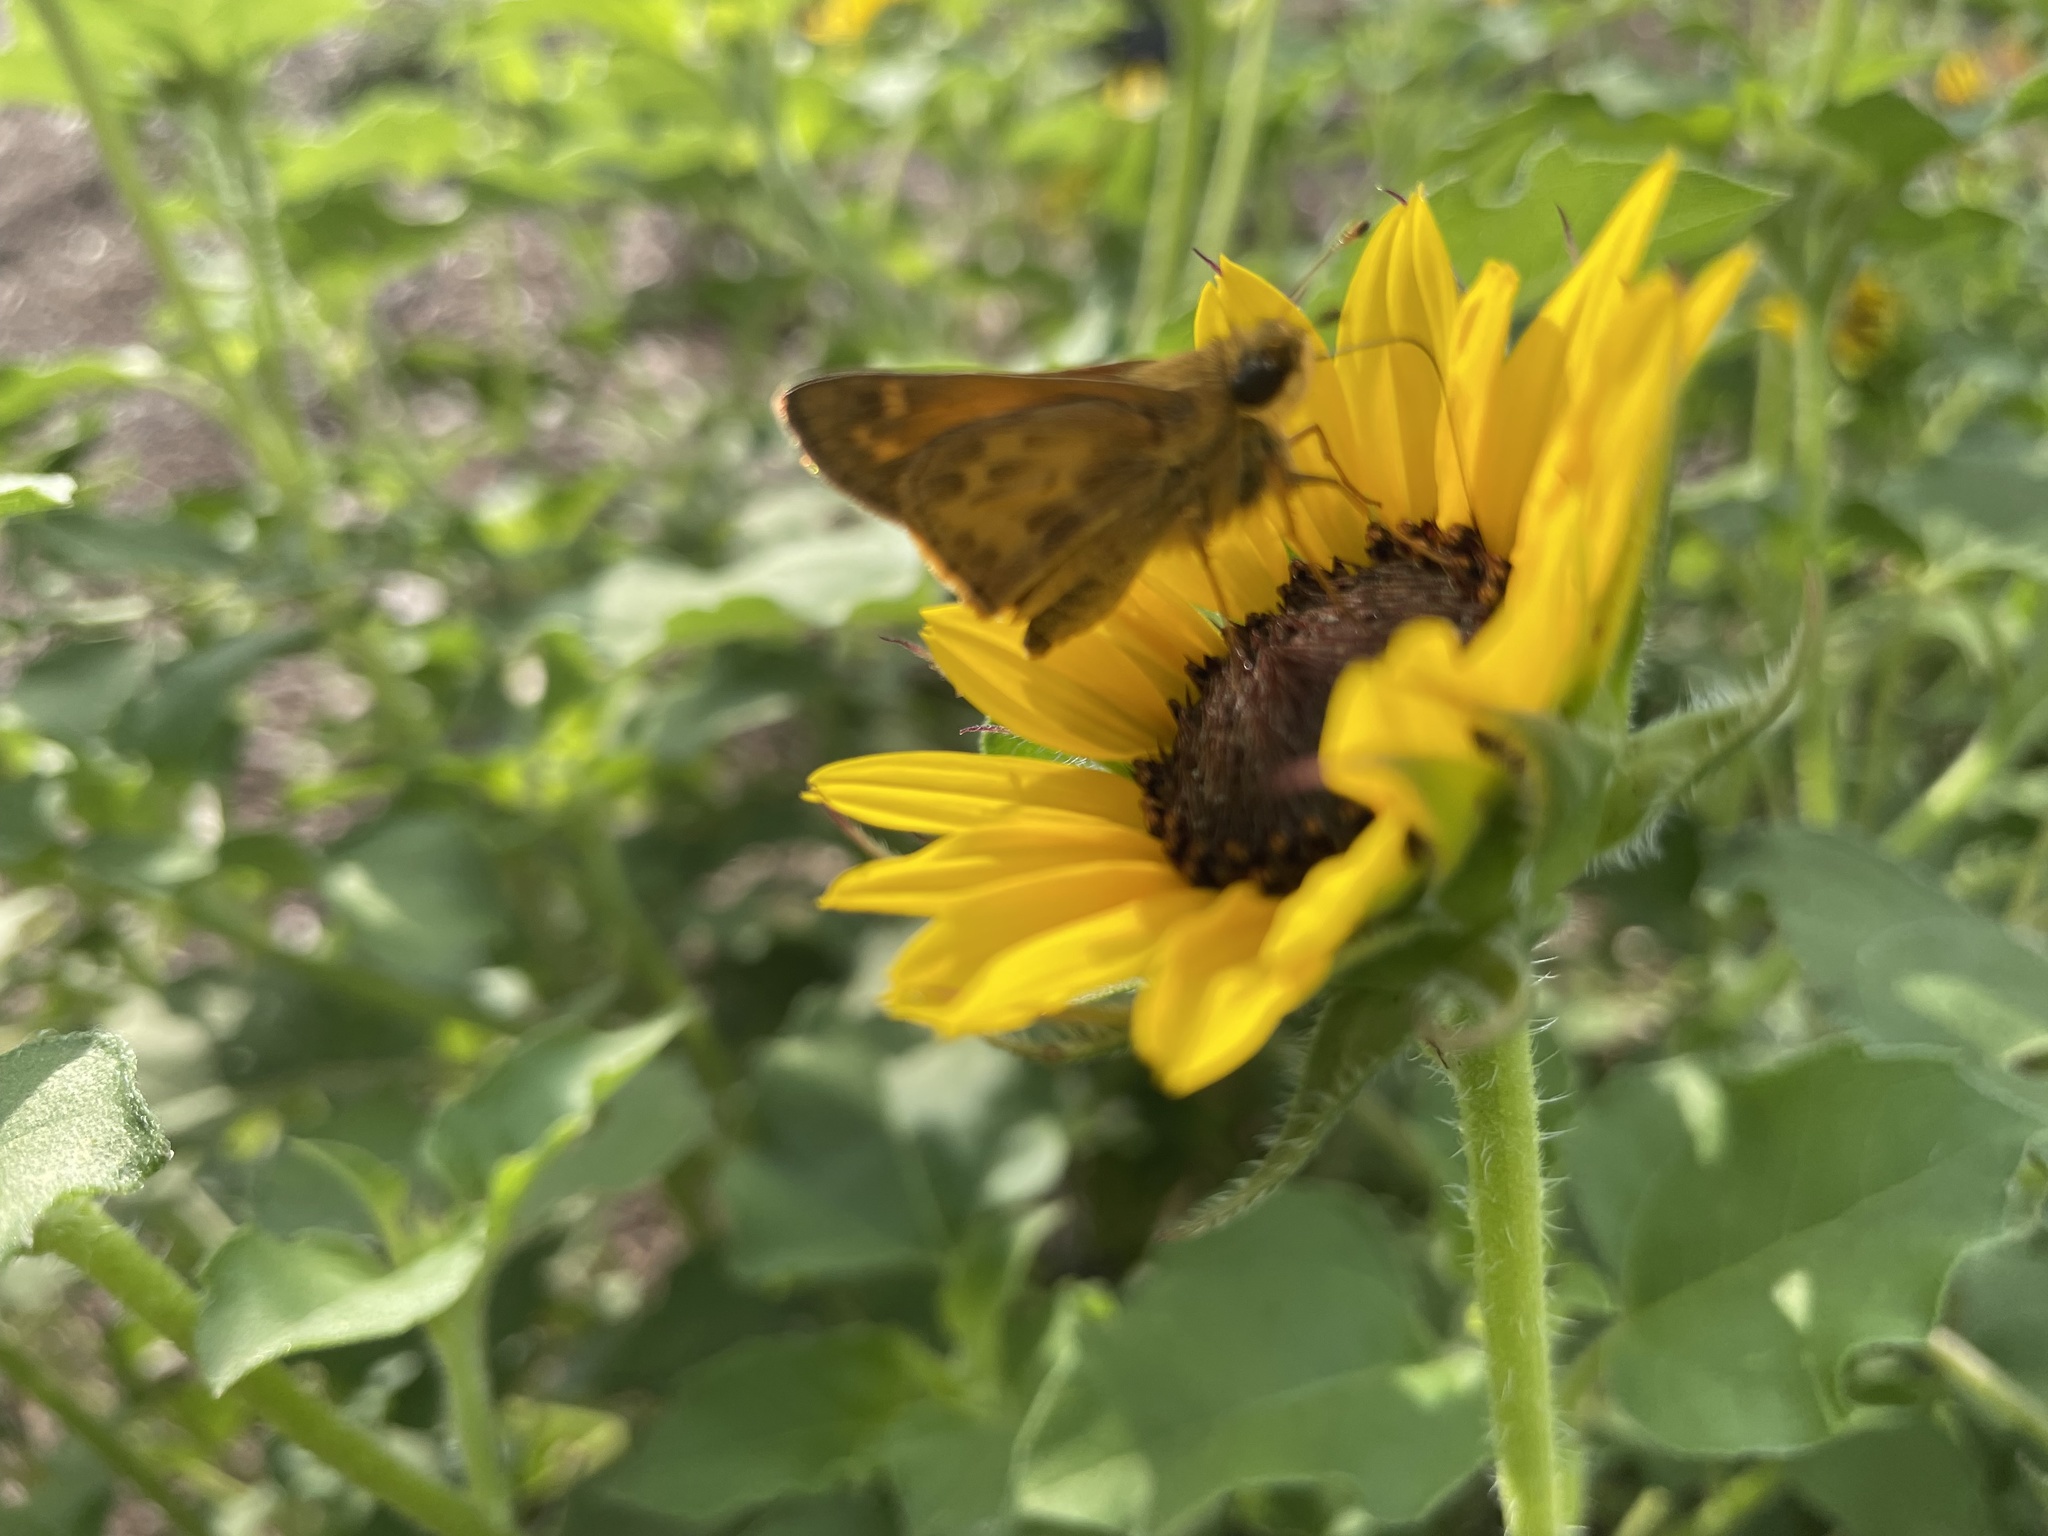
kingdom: Animalia
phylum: Arthropoda
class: Insecta
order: Lepidoptera
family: Hesperiidae
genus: Atalopedes
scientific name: Atalopedes
